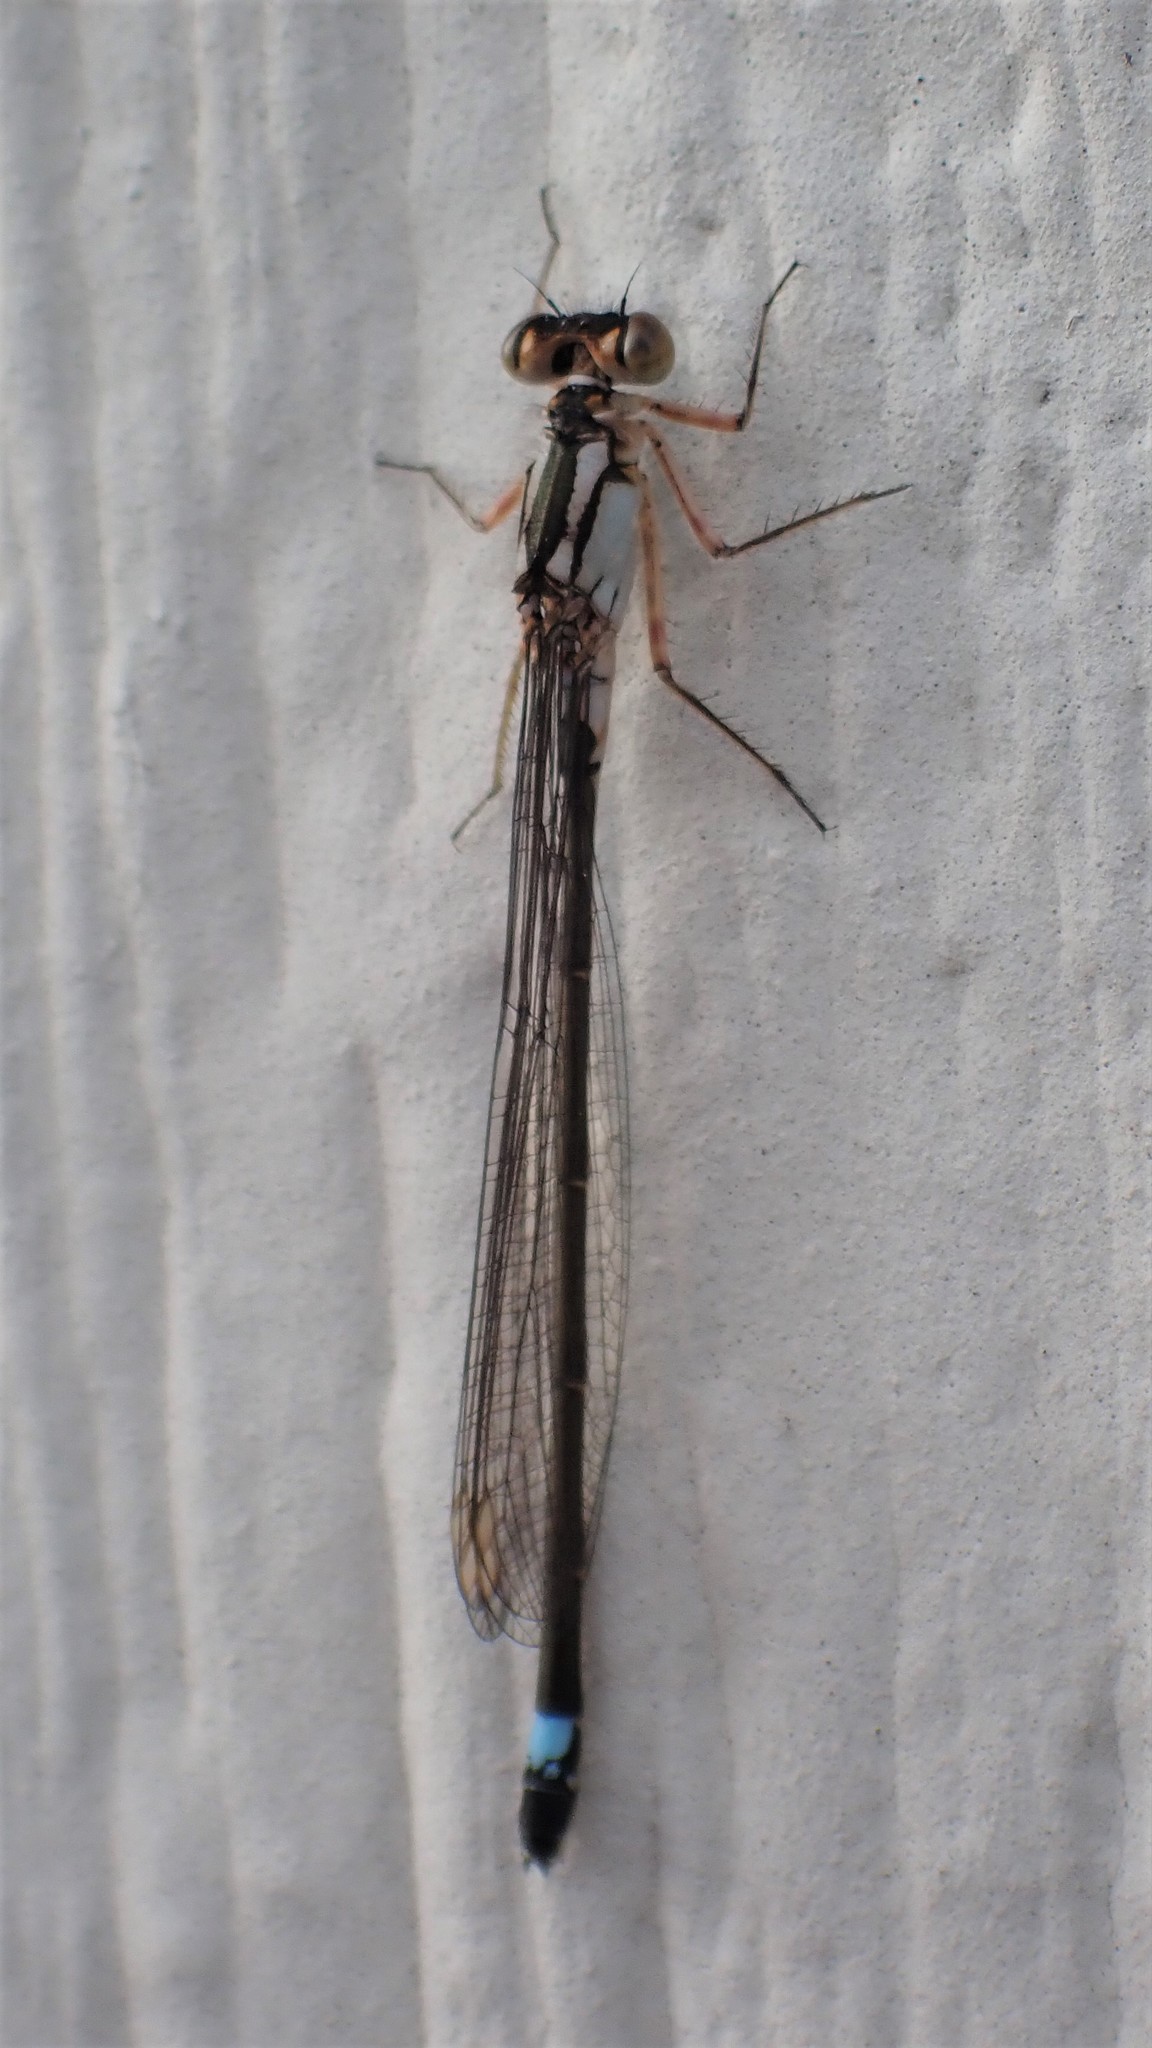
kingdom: Animalia
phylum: Arthropoda
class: Insecta
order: Odonata
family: Coenagrionidae
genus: Ischnura
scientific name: Ischnura cervula
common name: Pacific forktail
